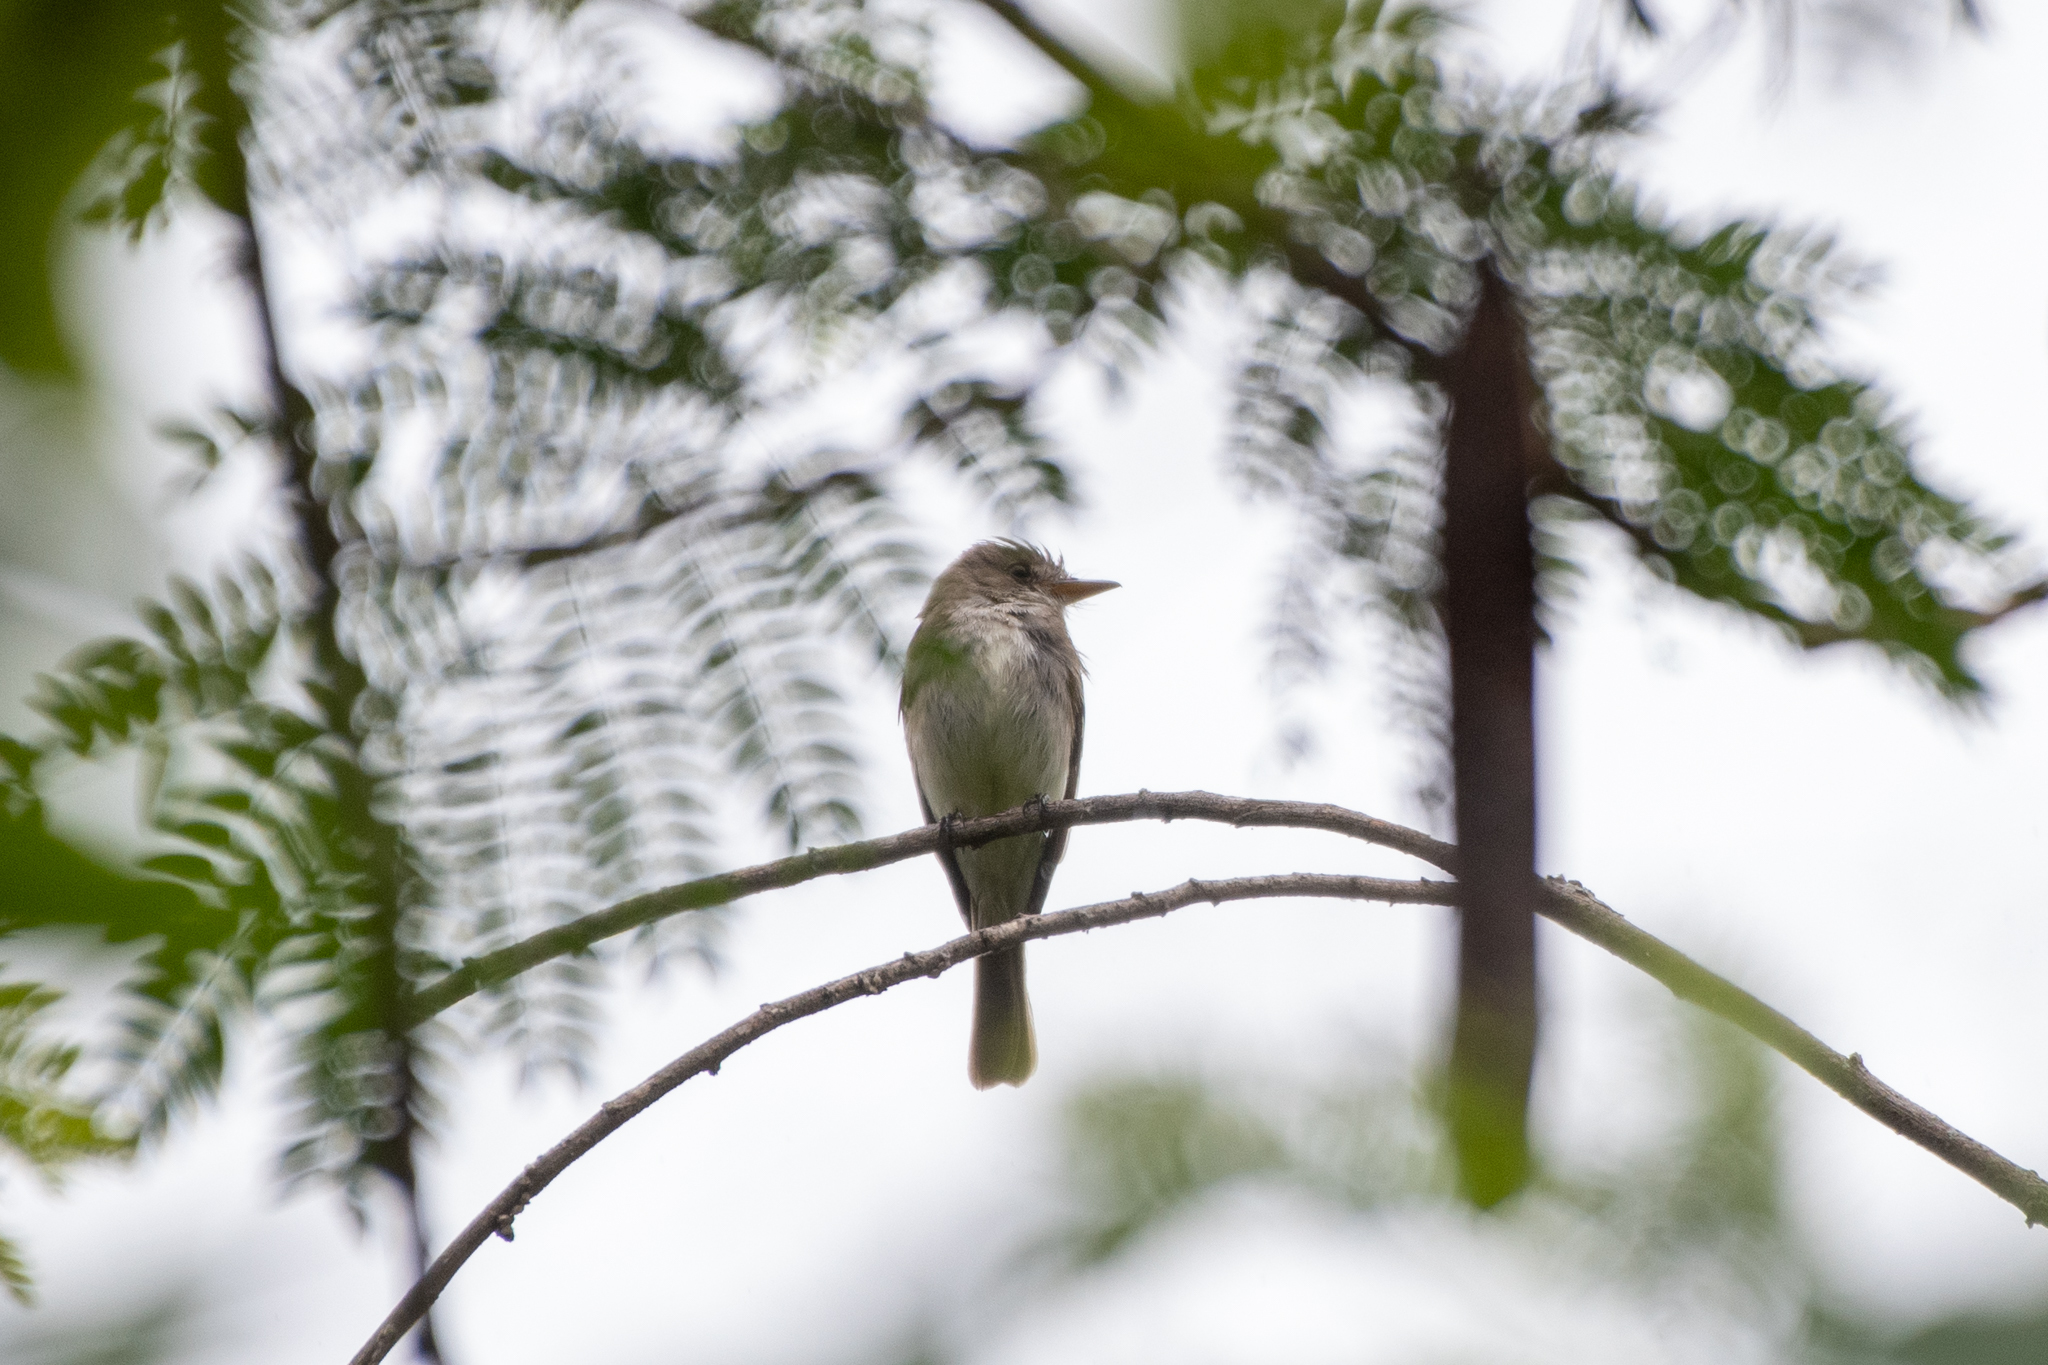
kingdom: Animalia
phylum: Chordata
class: Aves
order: Passeriformes
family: Tyrannidae
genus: Contopus
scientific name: Contopus cinereus
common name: Tropical pewee
